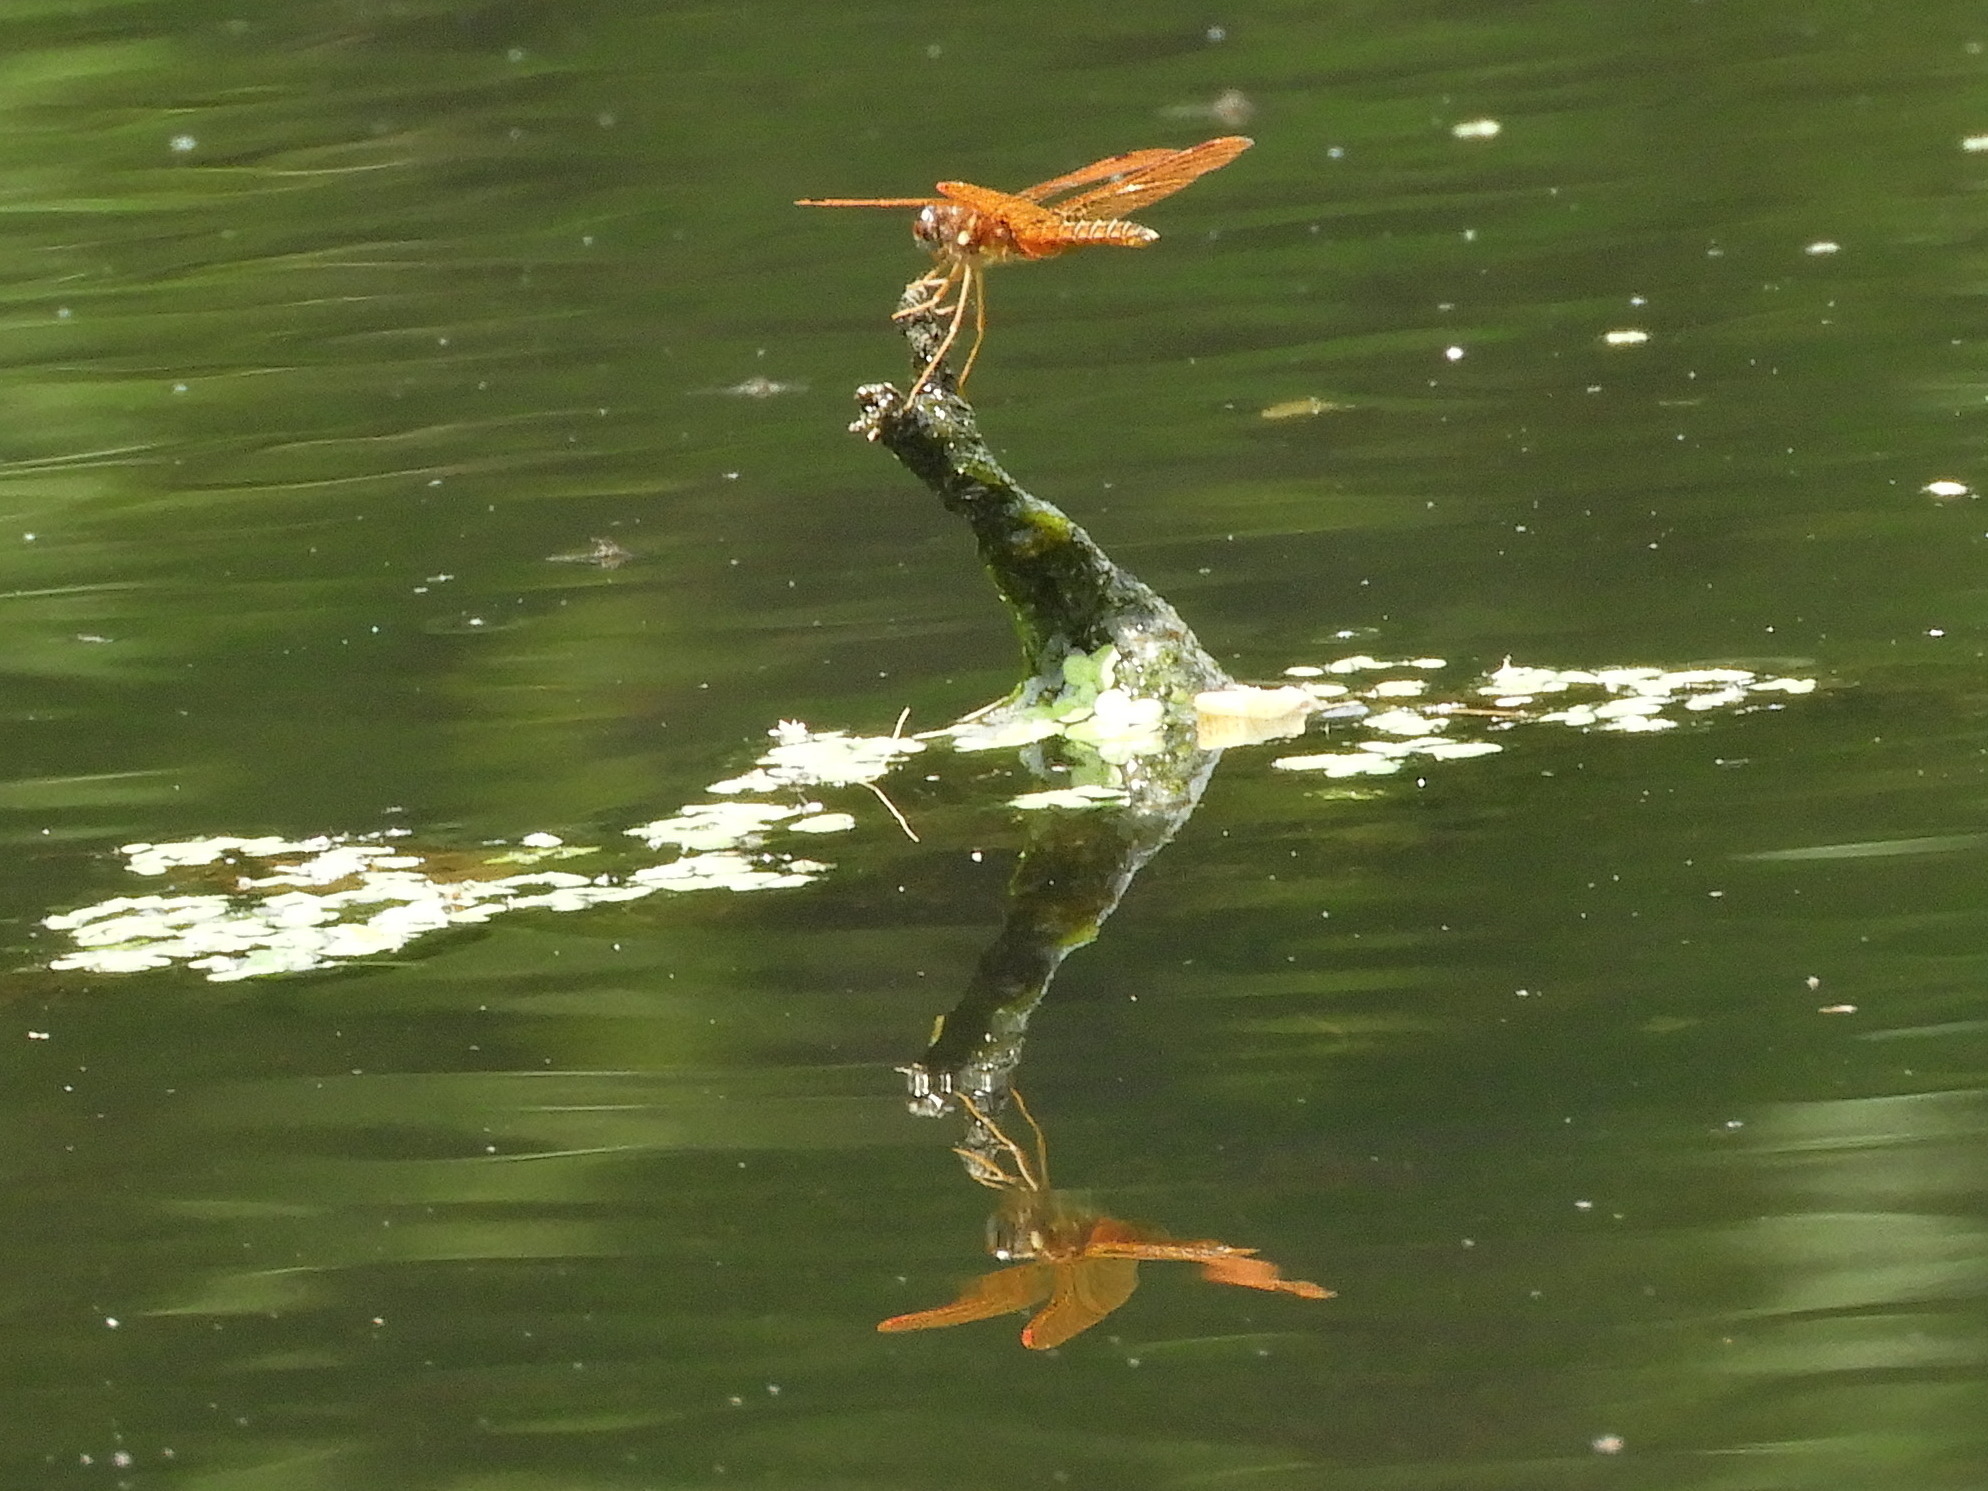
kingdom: Animalia
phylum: Arthropoda
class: Insecta
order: Odonata
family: Libellulidae
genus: Perithemis
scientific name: Perithemis tenera
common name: Eastern amberwing
